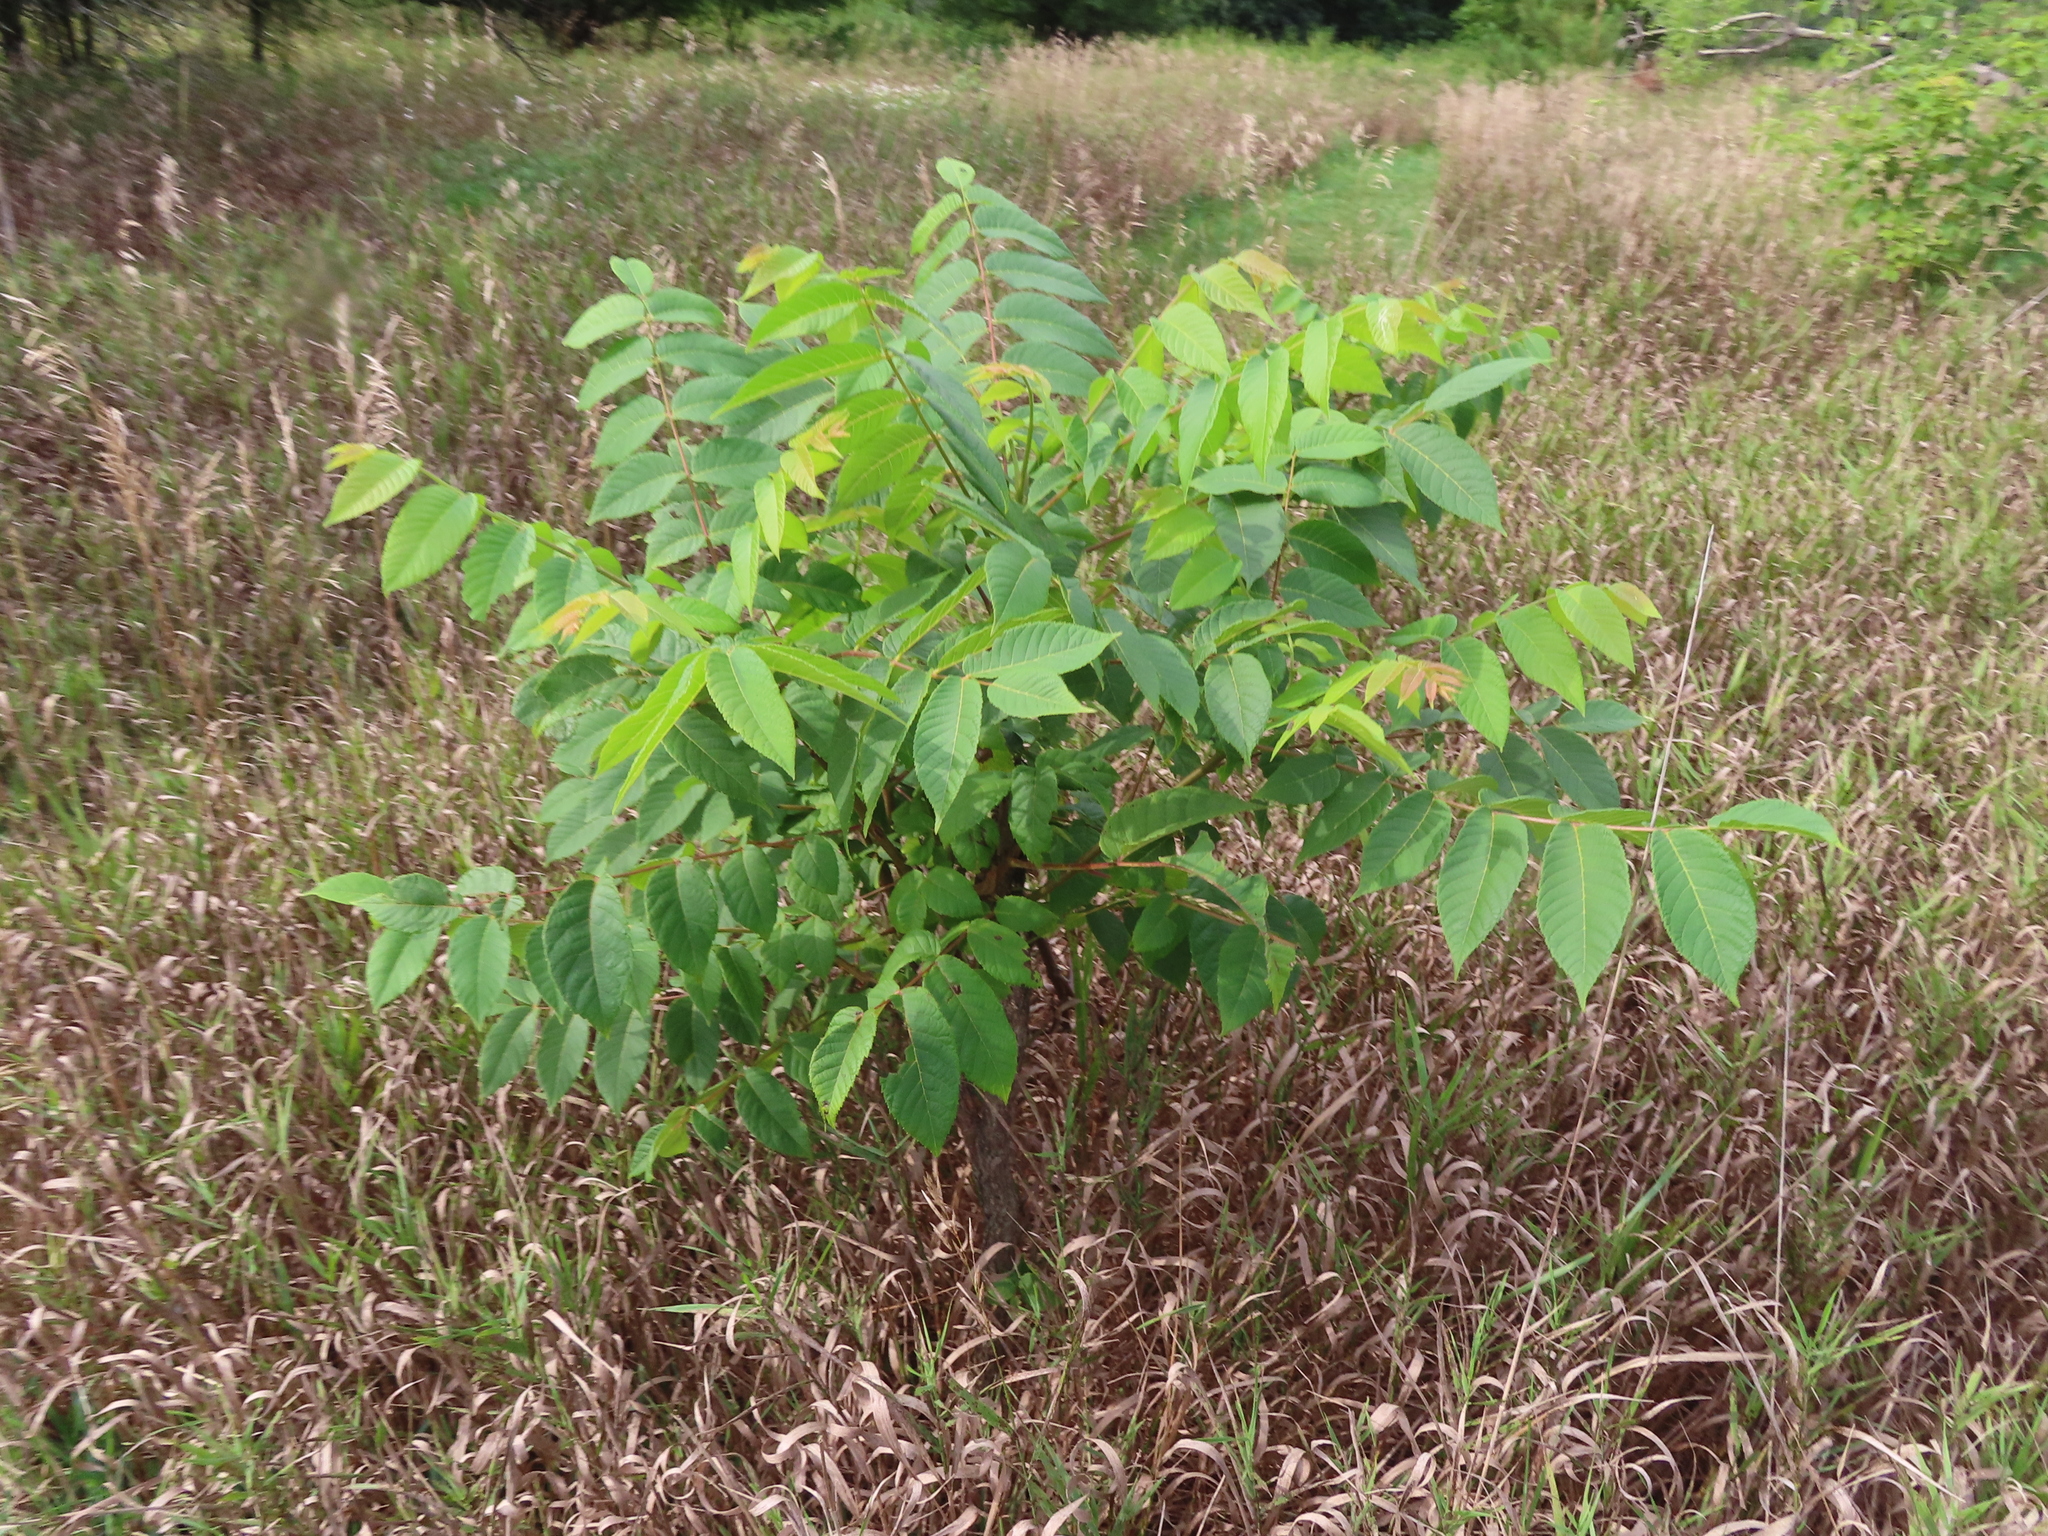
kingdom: Plantae
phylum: Tracheophyta
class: Magnoliopsida
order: Fagales
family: Juglandaceae
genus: Juglans
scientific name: Juglans nigra
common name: Black walnut
